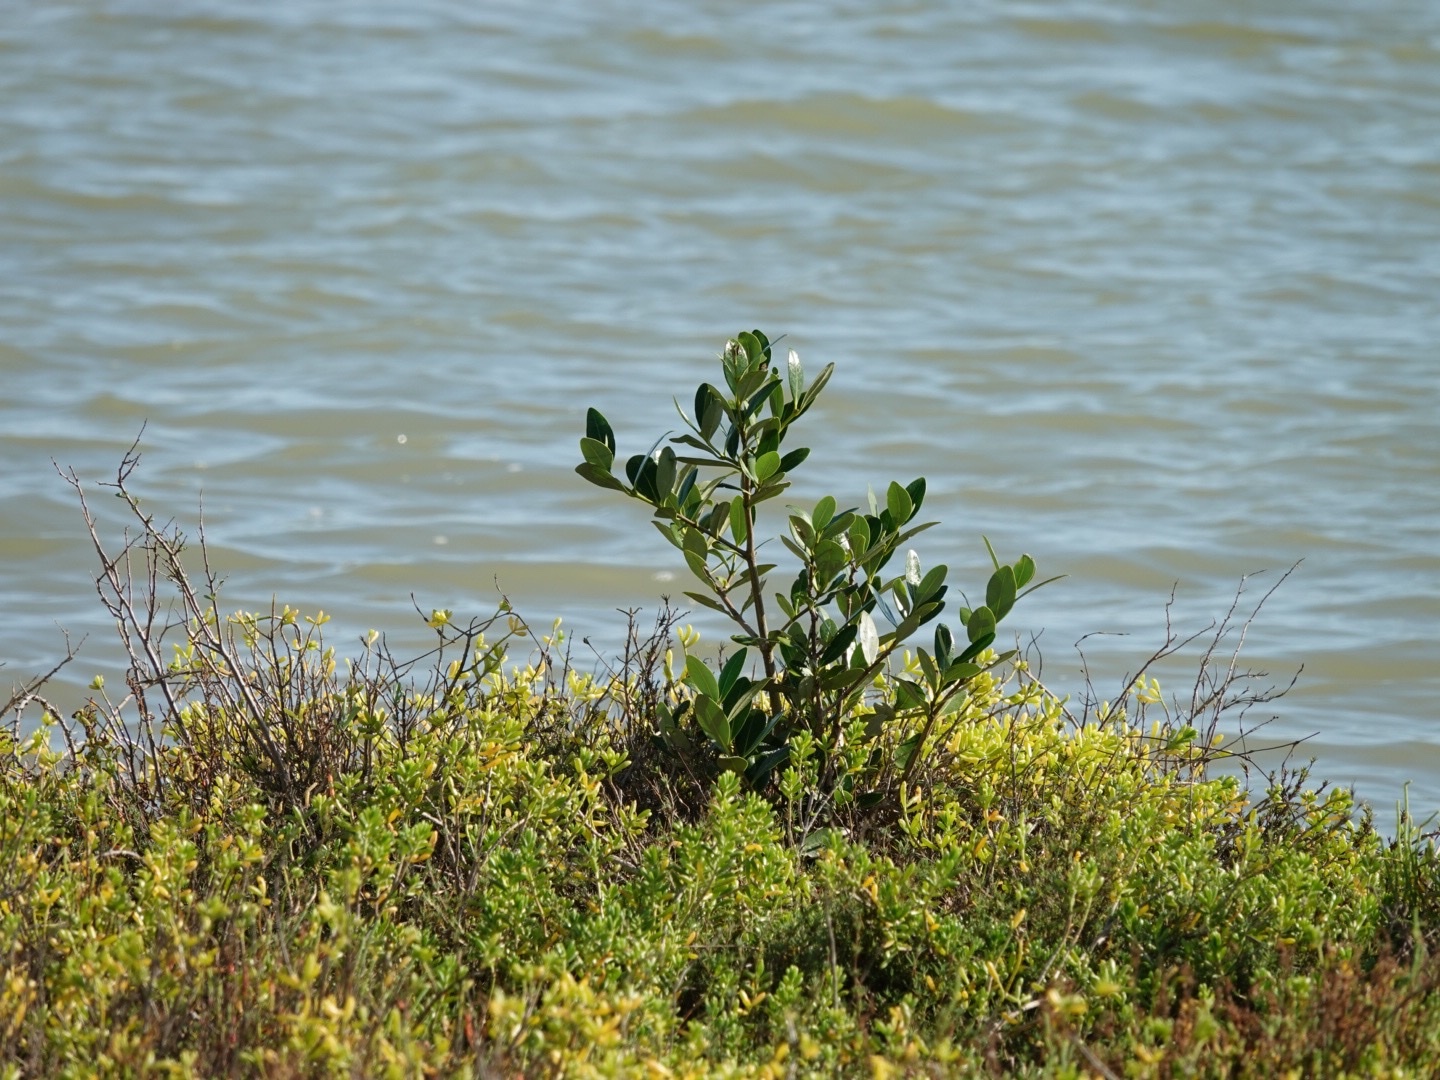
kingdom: Plantae
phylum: Tracheophyta
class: Magnoliopsida
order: Lamiales
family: Acanthaceae
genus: Avicennia
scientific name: Avicennia germinans
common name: Black mangrove
